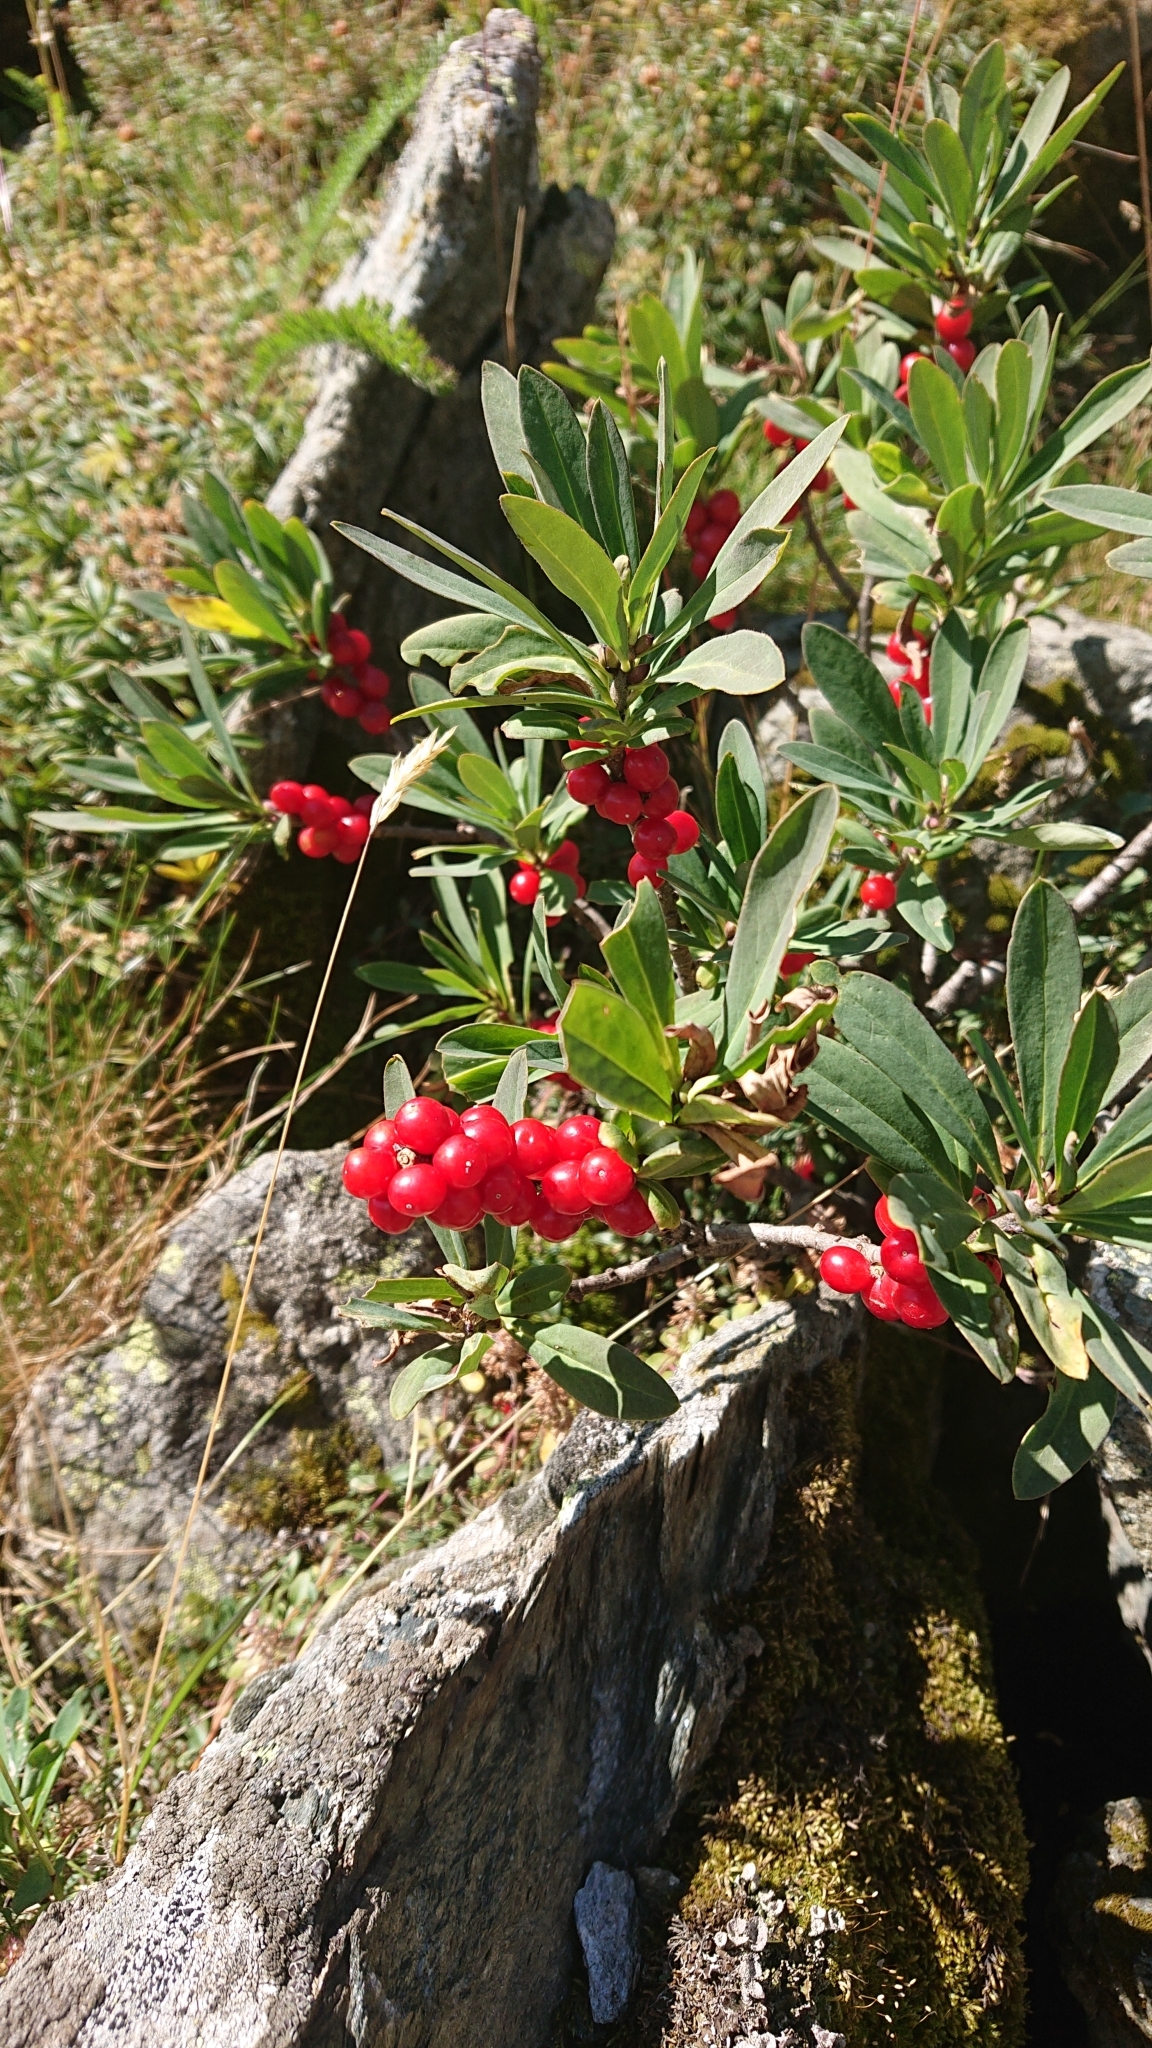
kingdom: Plantae
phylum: Tracheophyta
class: Magnoliopsida
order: Malvales
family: Thymelaeaceae
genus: Daphne
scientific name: Daphne mezereum
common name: Mezereon
